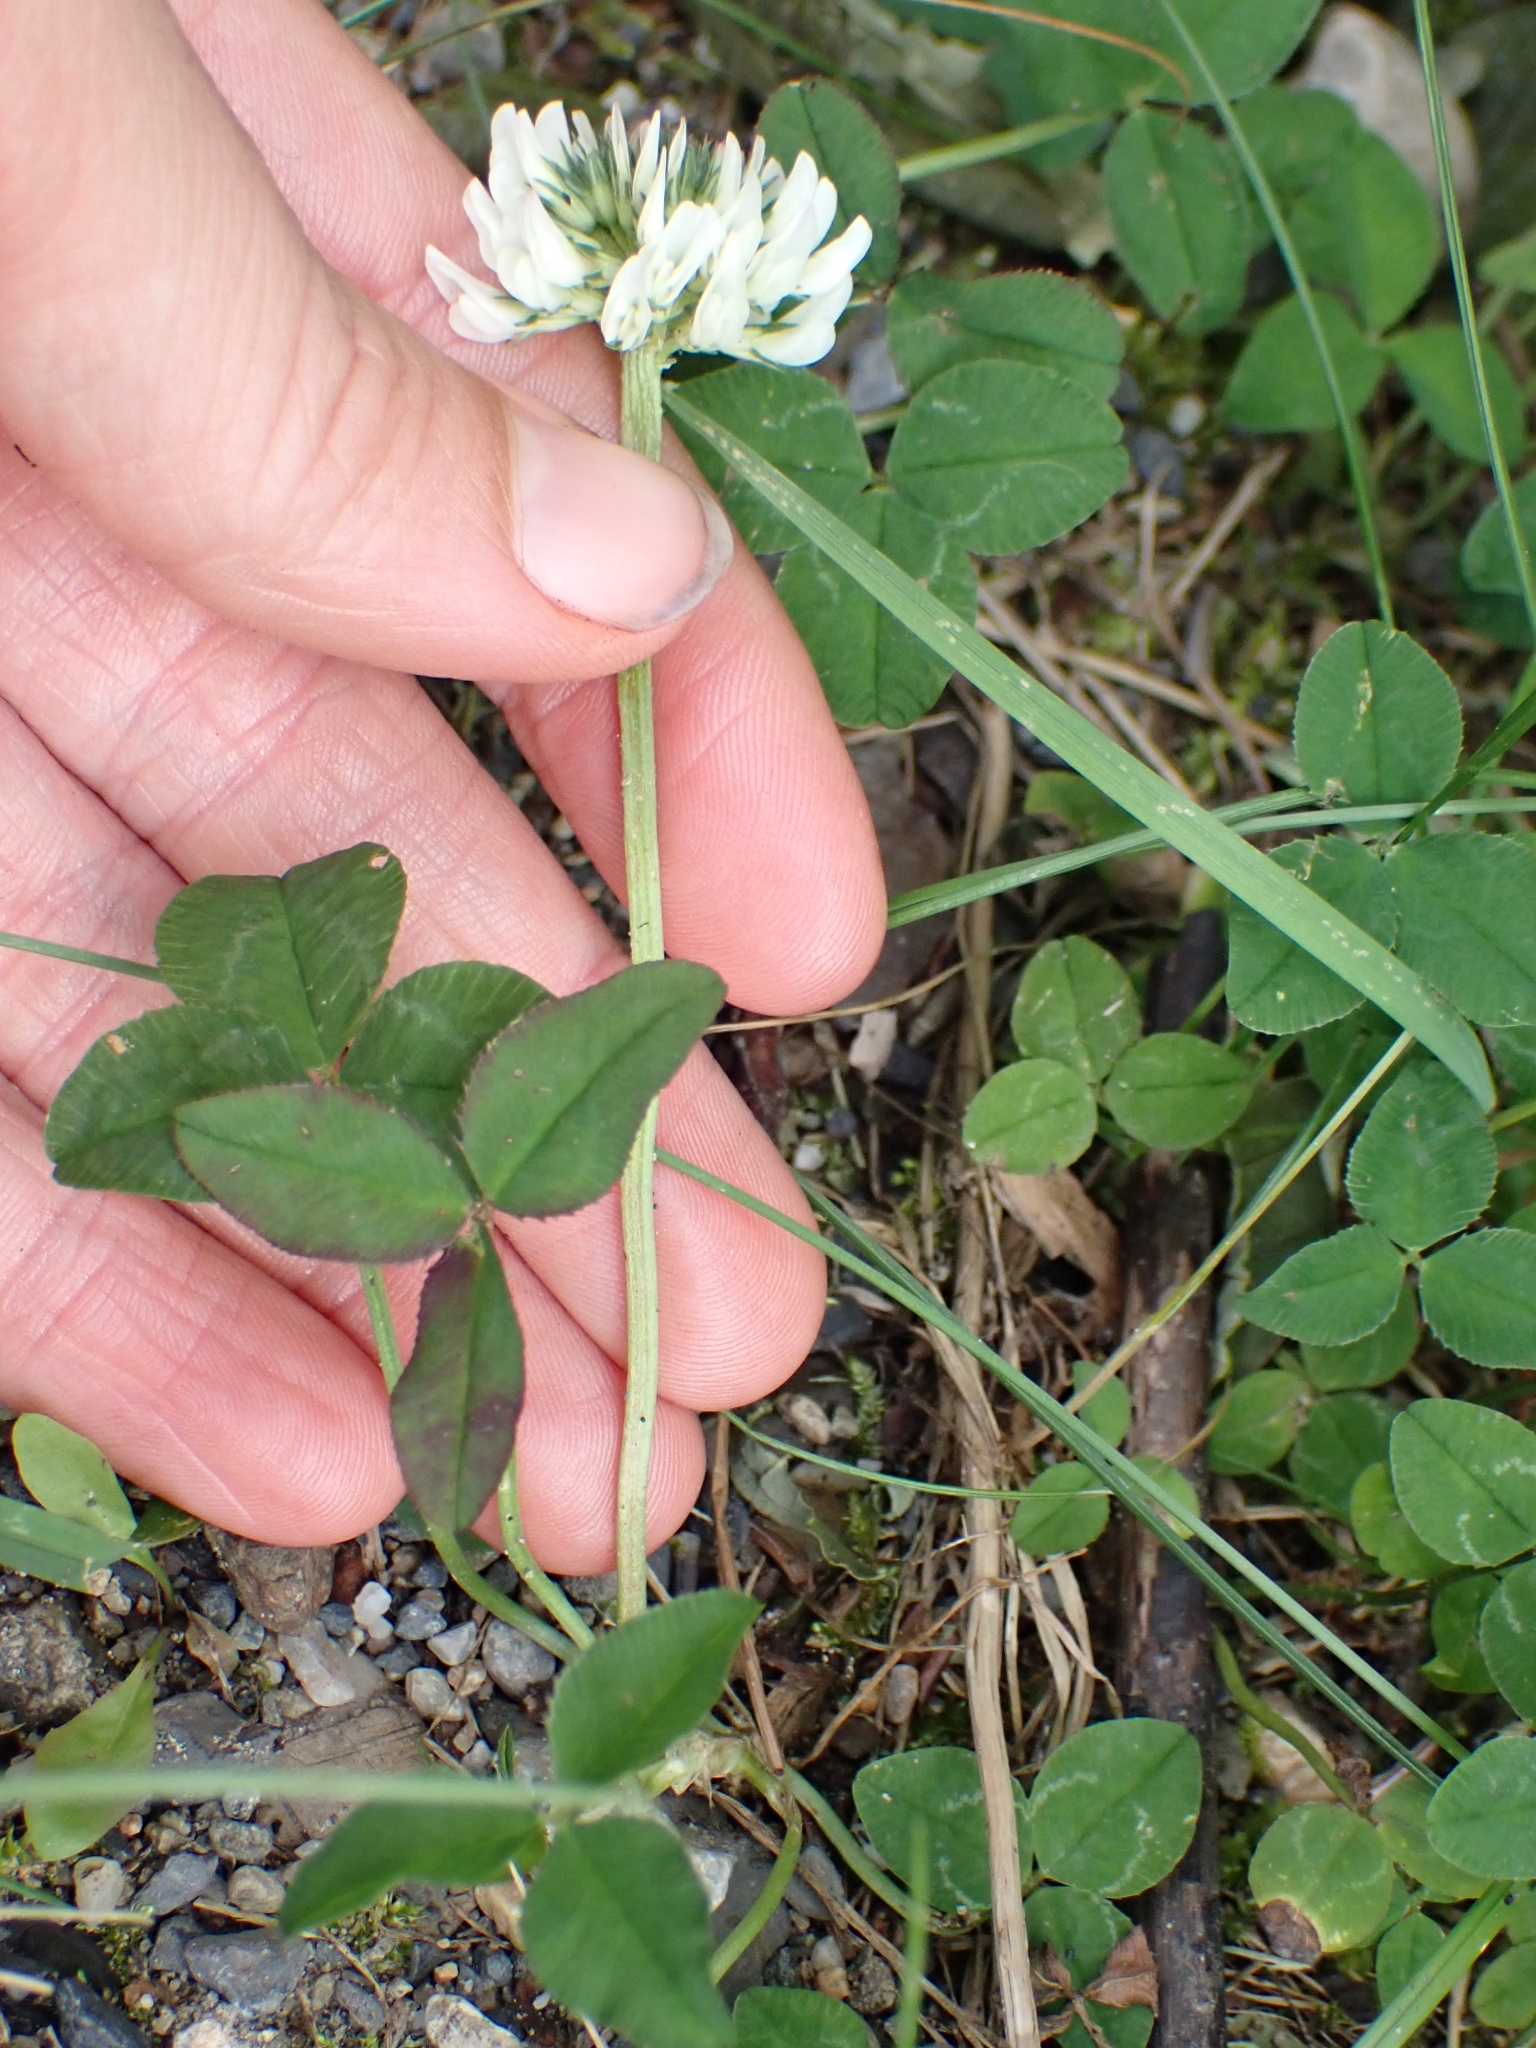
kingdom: Plantae
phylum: Tracheophyta
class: Magnoliopsida
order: Fabales
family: Fabaceae
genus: Trifolium
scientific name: Trifolium repens
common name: White clover
